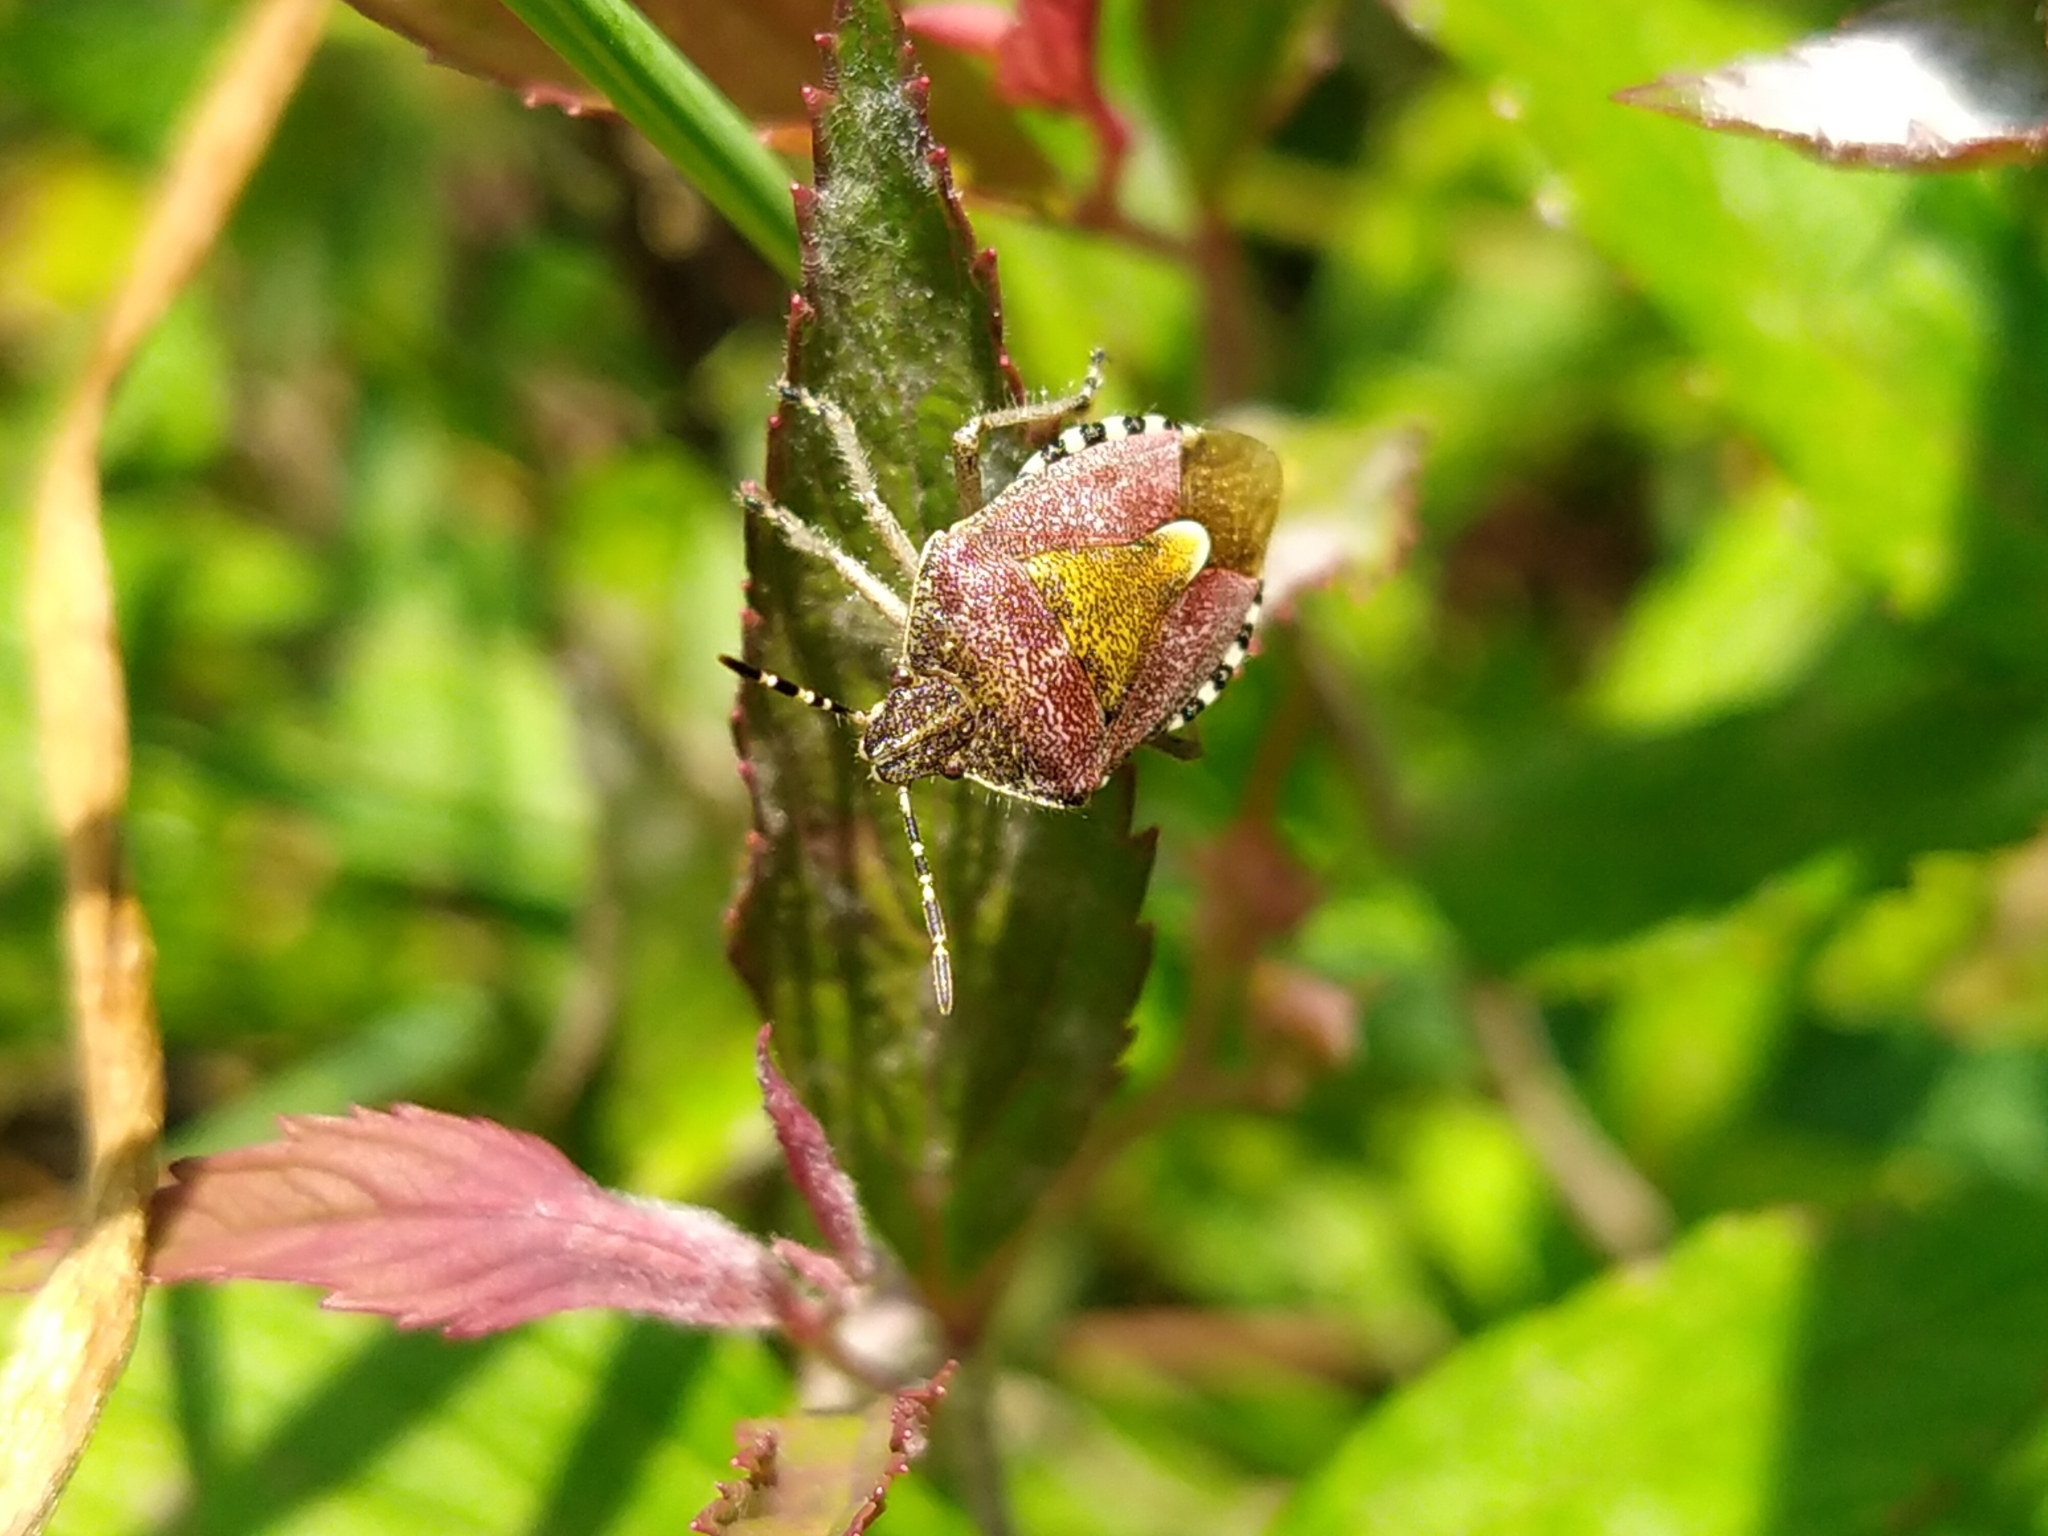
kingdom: Animalia
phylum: Arthropoda
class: Insecta
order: Hemiptera
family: Pentatomidae
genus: Dolycoris
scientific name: Dolycoris baccarum
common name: Sloe bug
